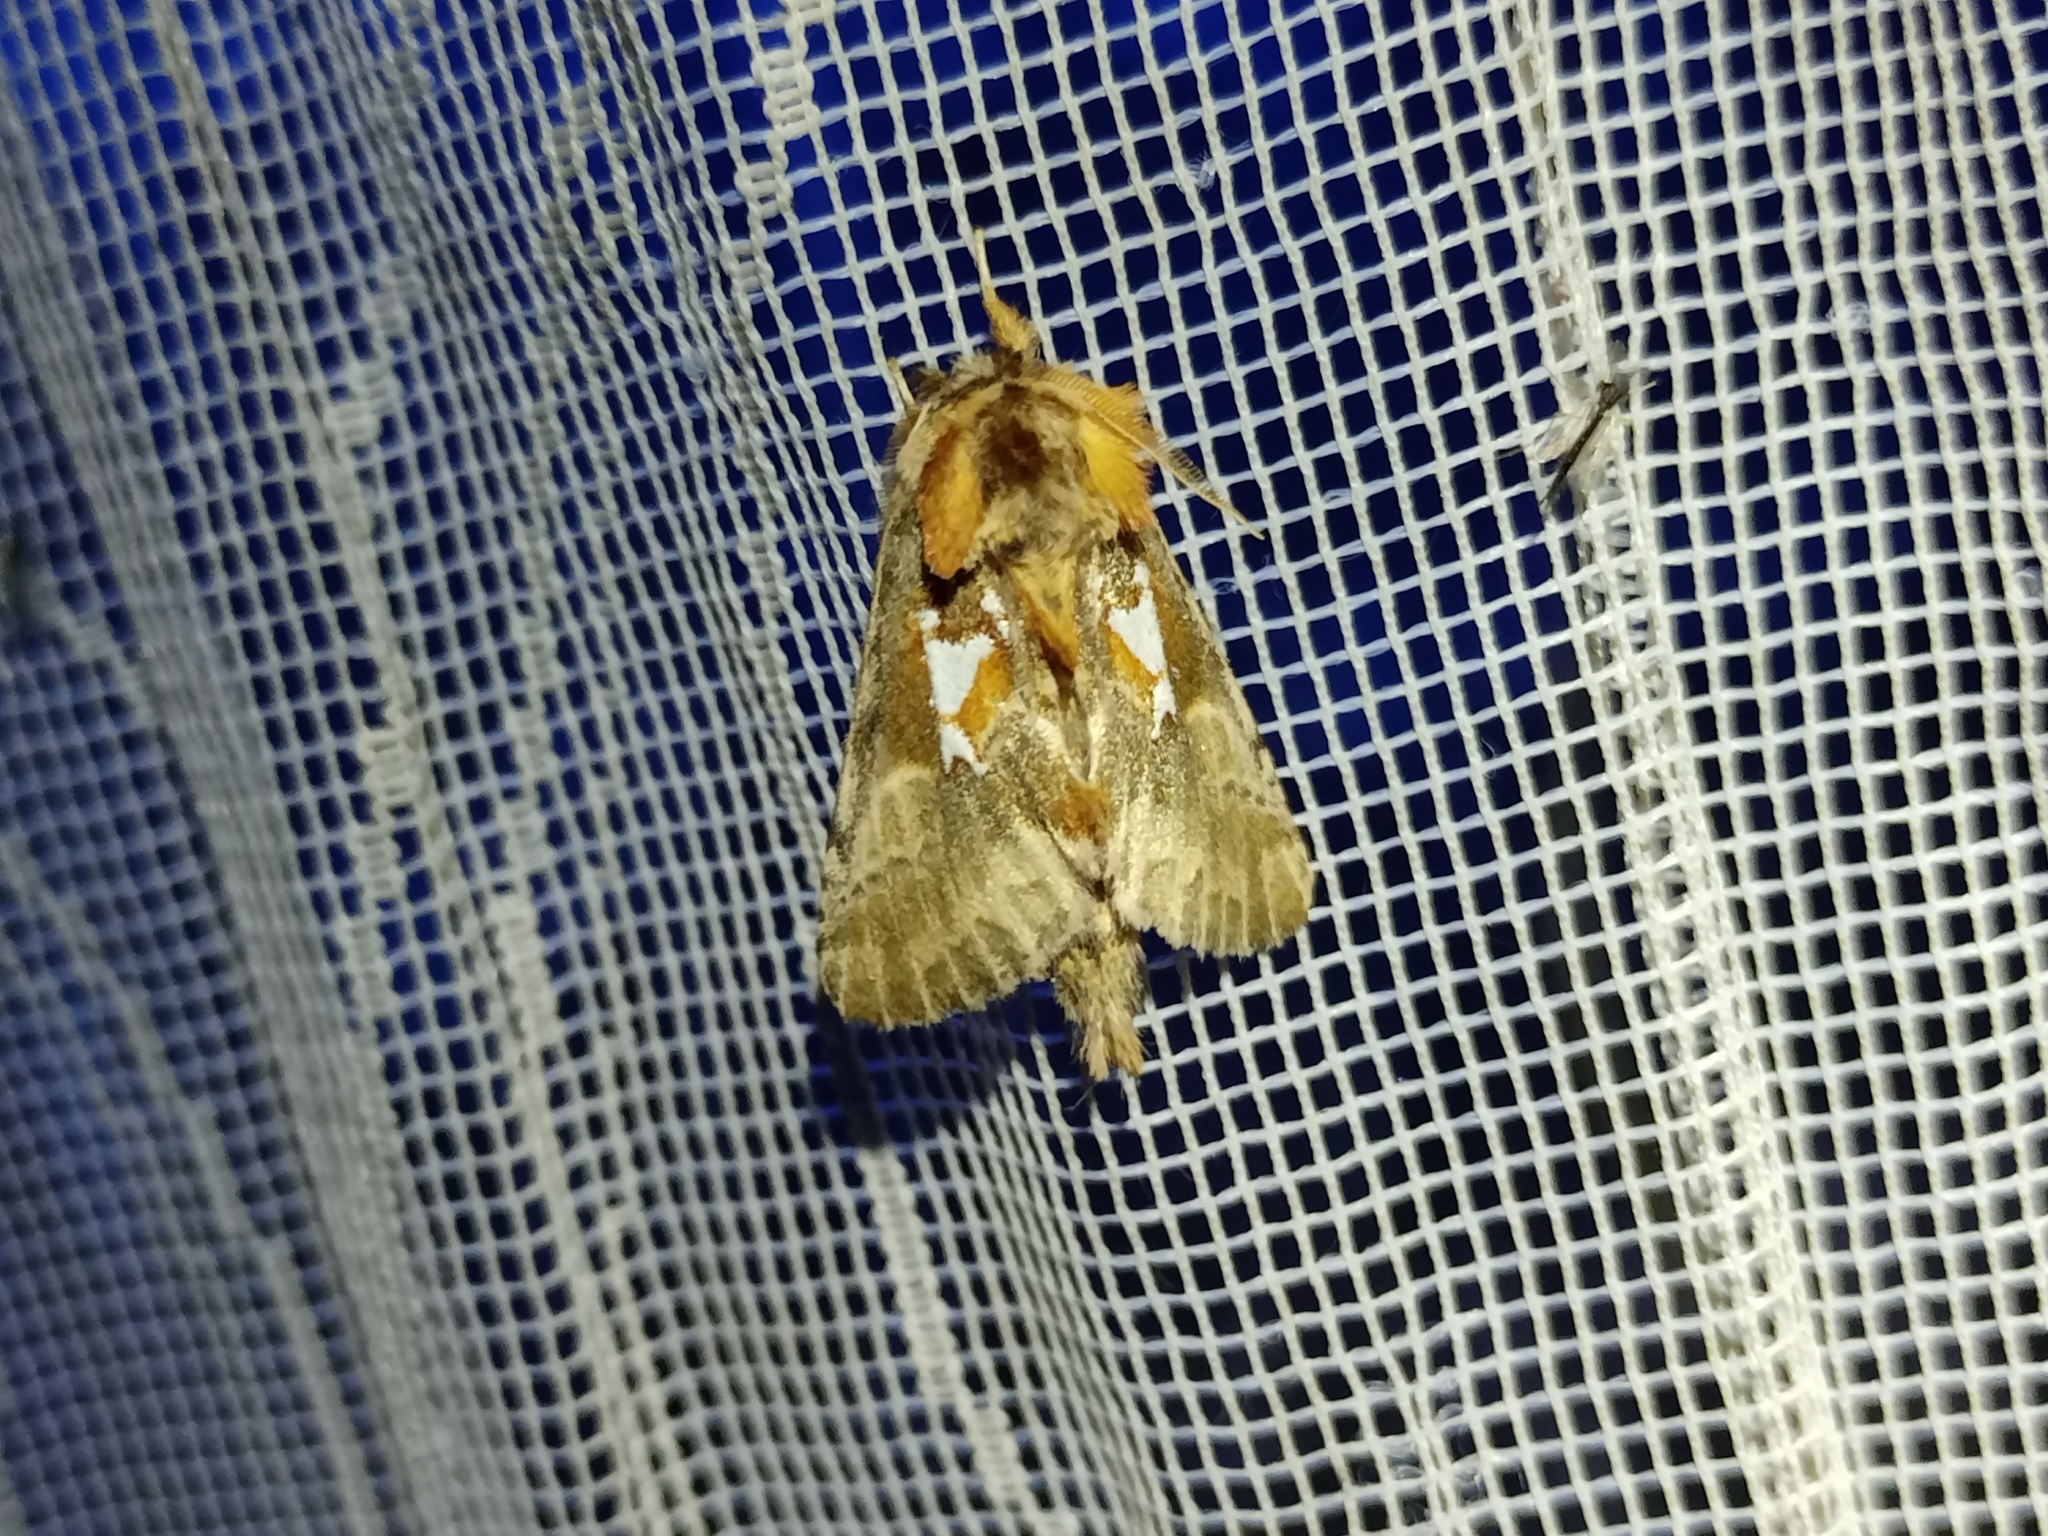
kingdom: Animalia
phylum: Arthropoda
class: Insecta
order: Lepidoptera
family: Notodontidae
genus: Spatalia
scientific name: Spatalia argentina
